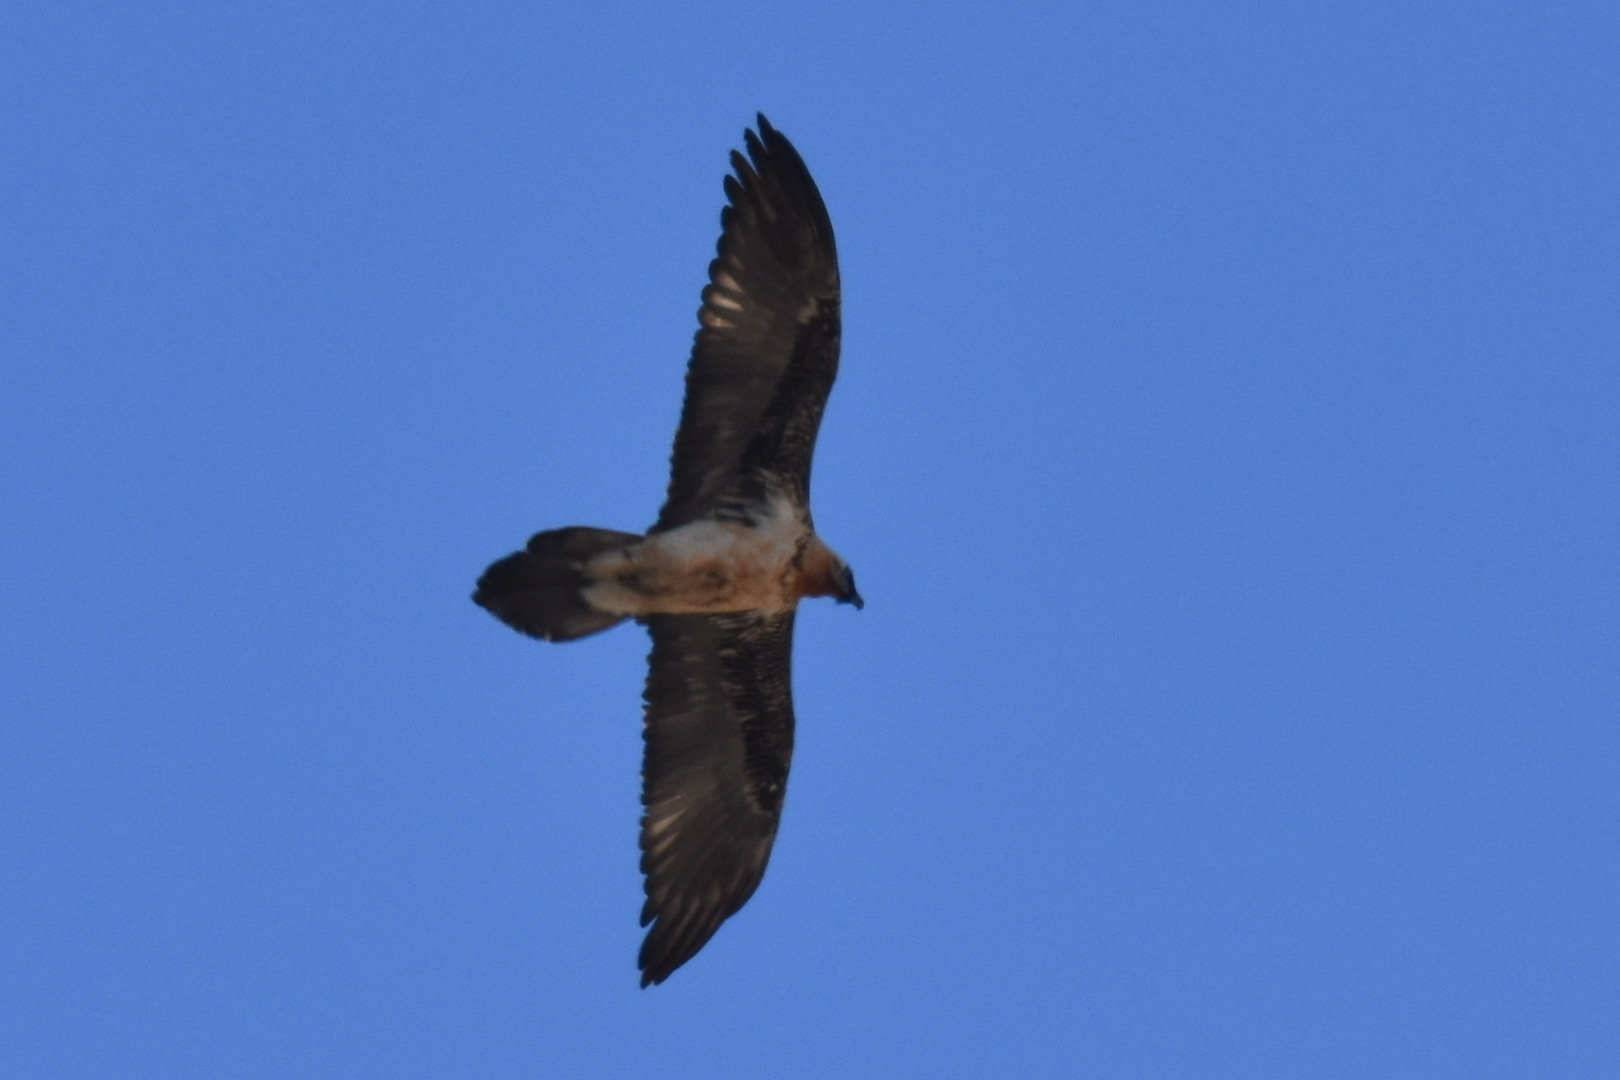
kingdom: Animalia
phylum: Chordata
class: Aves
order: Accipitriformes
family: Accipitridae
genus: Gypaetus
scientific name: Gypaetus barbatus
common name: Bearded vulture
